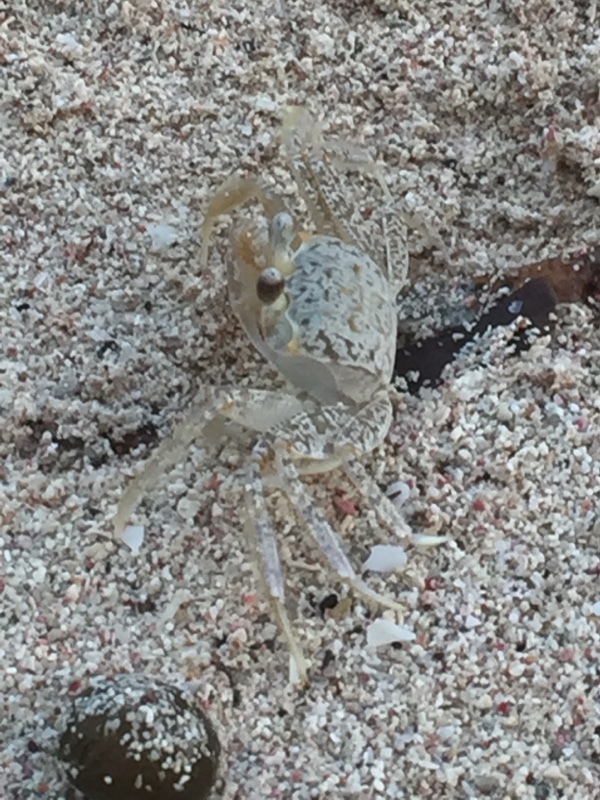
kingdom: Animalia
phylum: Arthropoda
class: Malacostraca
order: Decapoda
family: Ocypodidae
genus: Ocypode
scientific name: Ocypode quadrata
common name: Ghost crab
